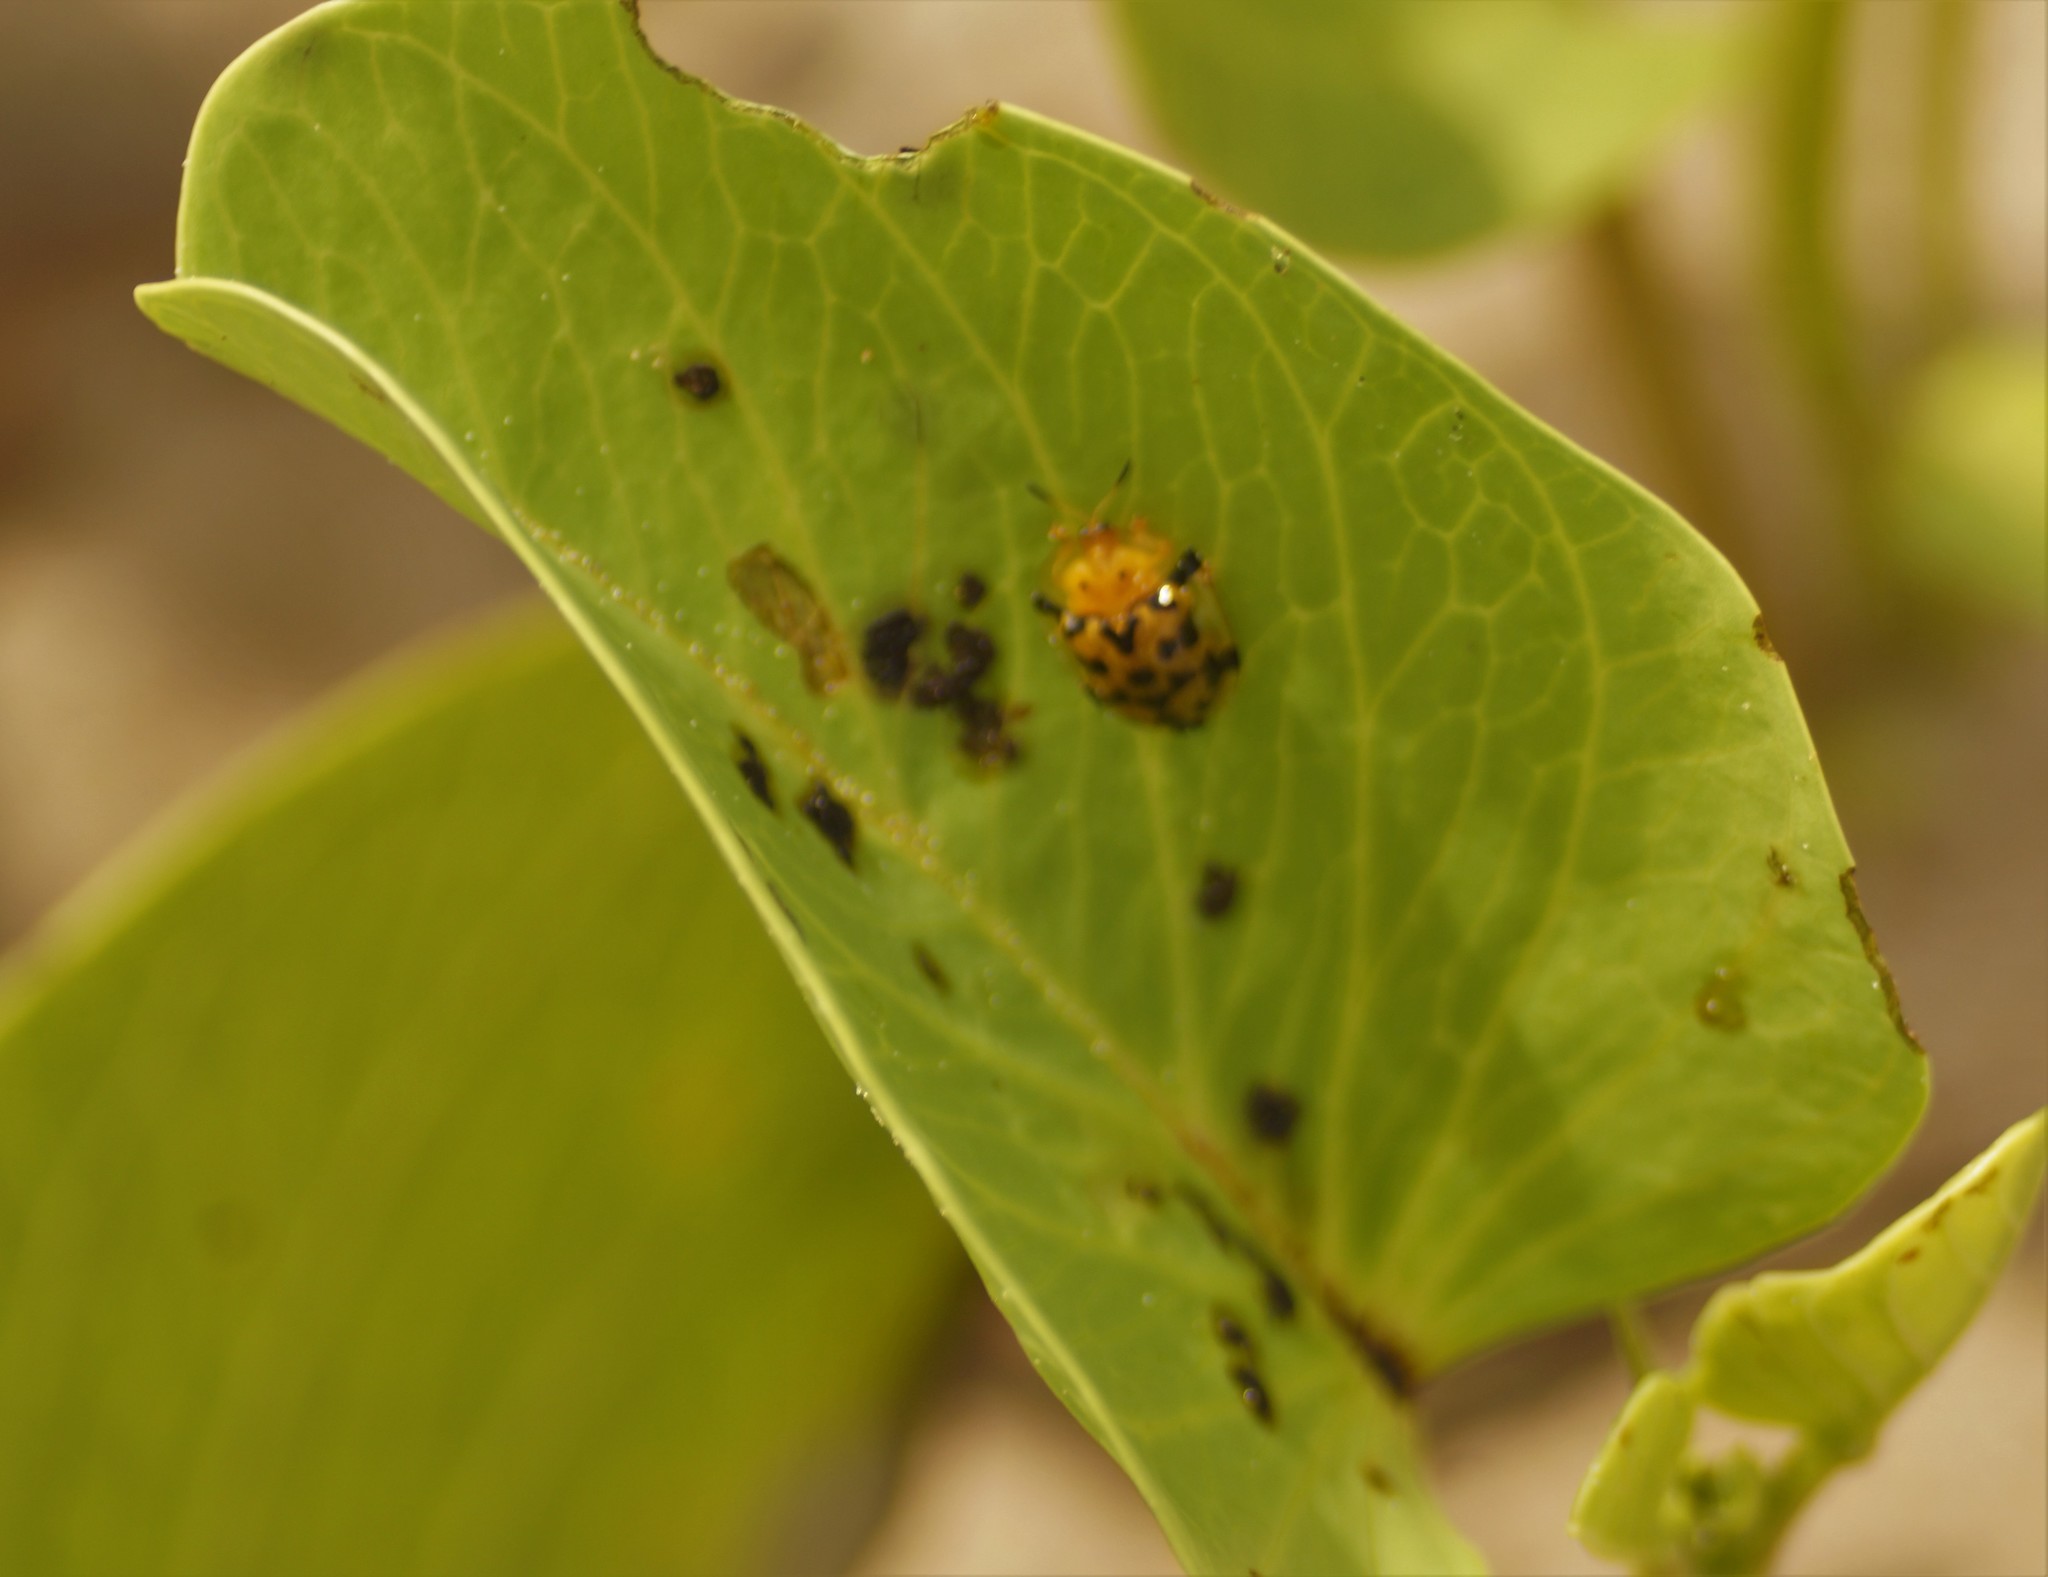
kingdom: Animalia
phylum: Arthropoda
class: Insecta
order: Coleoptera
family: Chrysomelidae
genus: Aspidimorpha
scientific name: Aspidimorpha deusta
